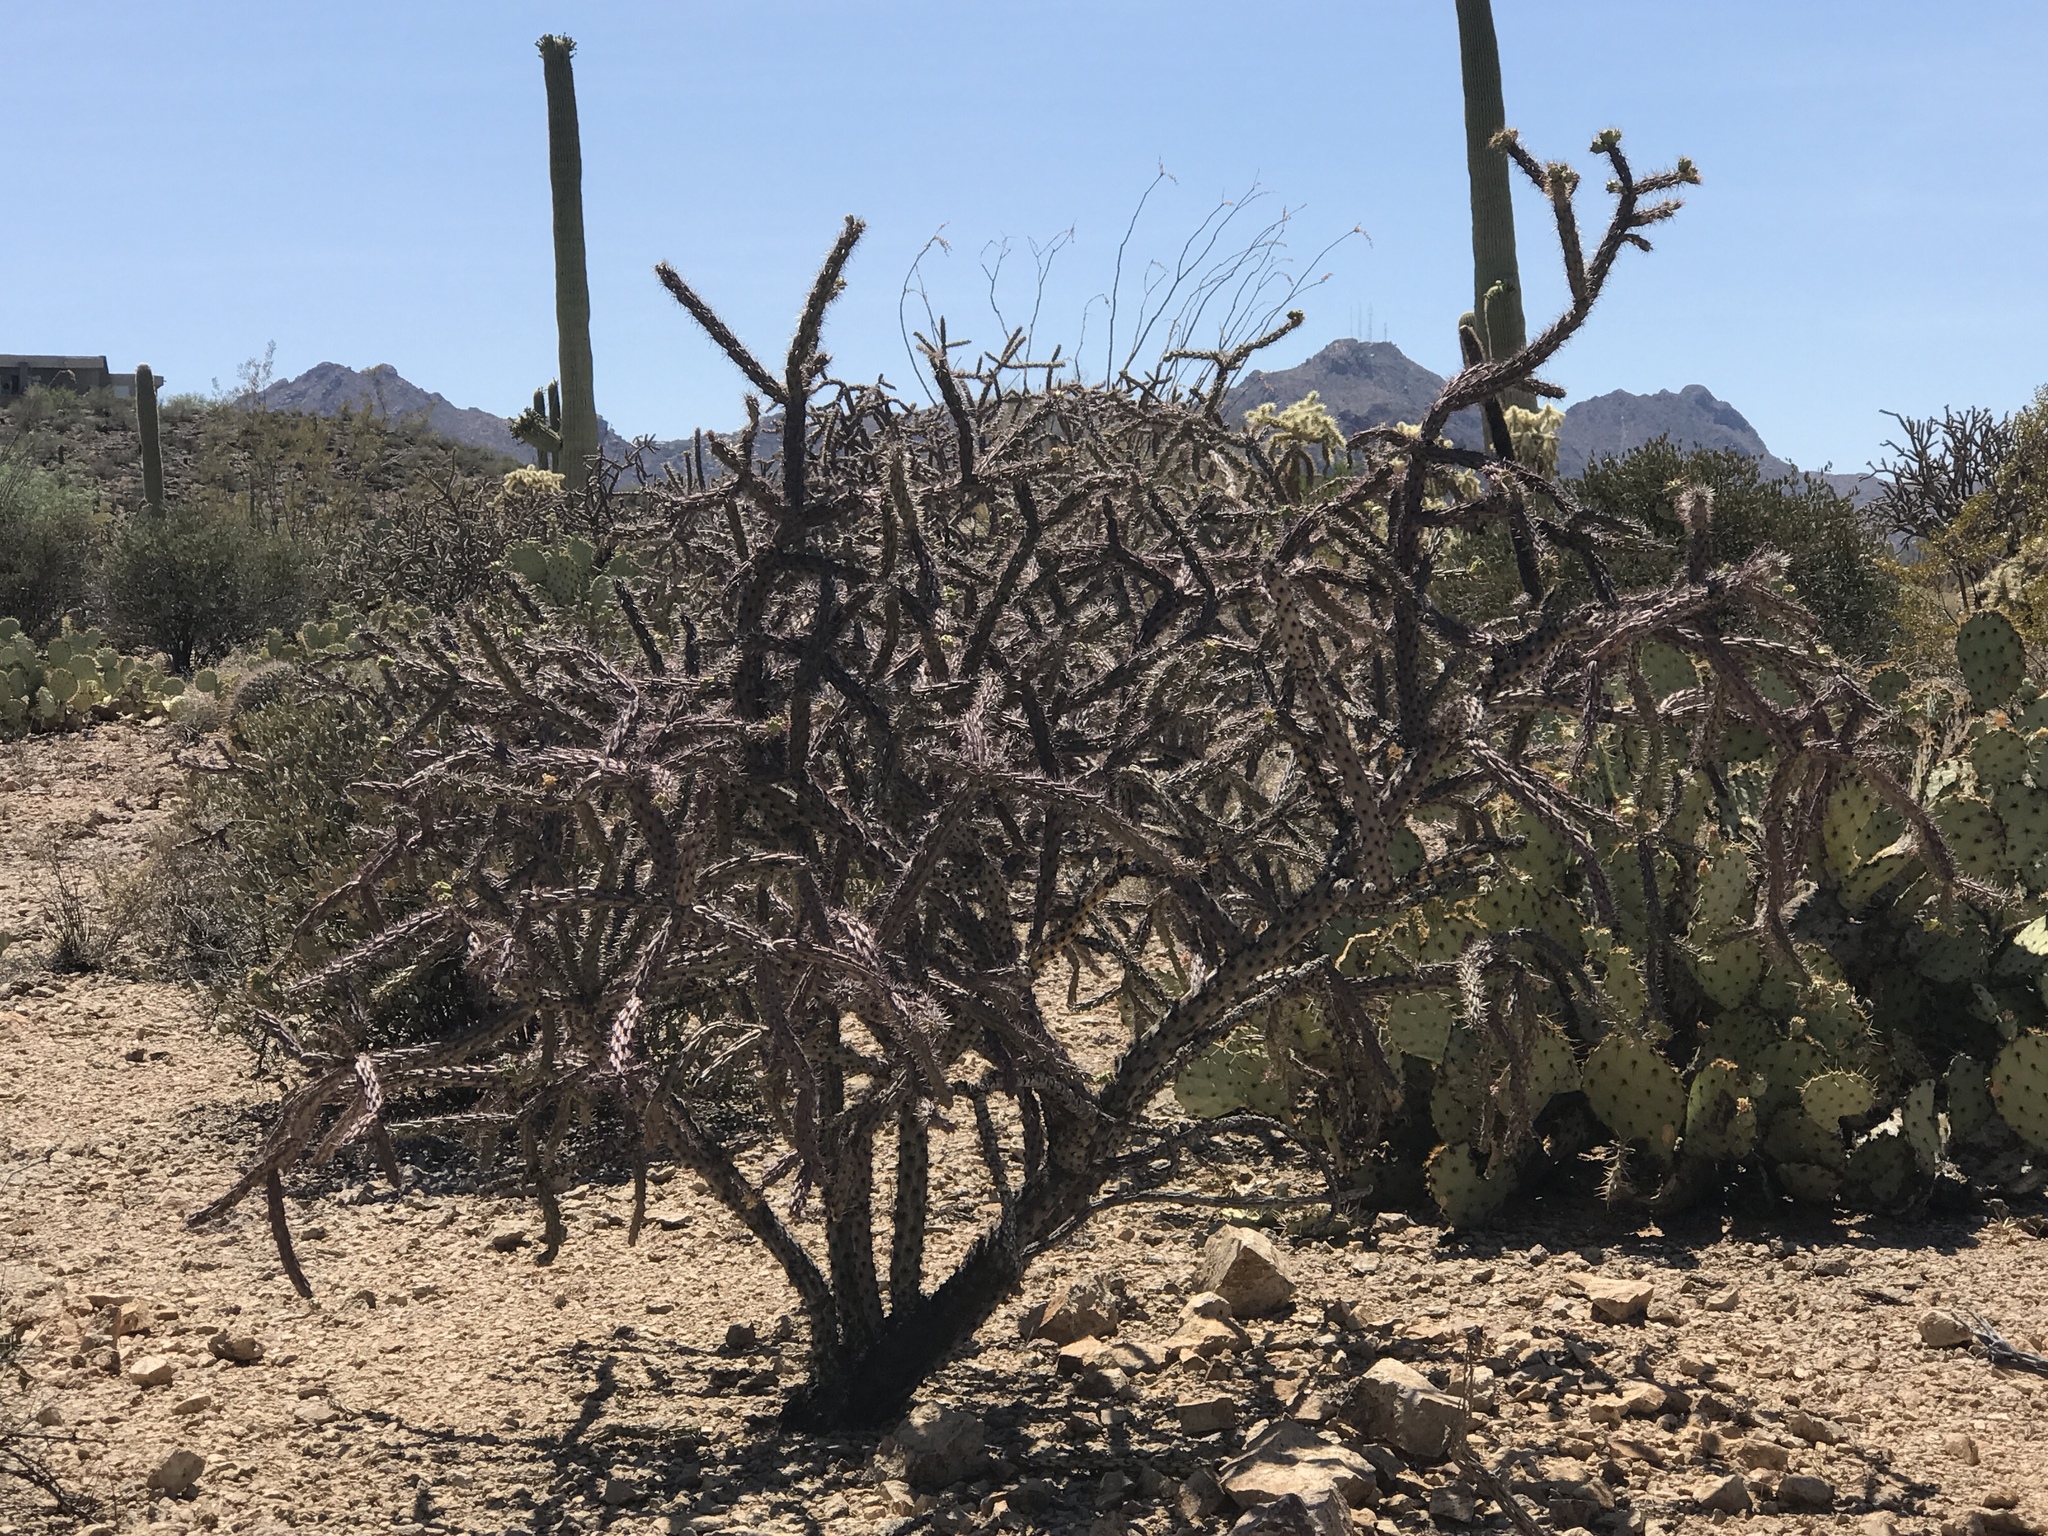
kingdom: Plantae
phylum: Tracheophyta
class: Magnoliopsida
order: Caryophyllales
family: Cactaceae
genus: Cylindropuntia
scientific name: Cylindropuntia thurberi
